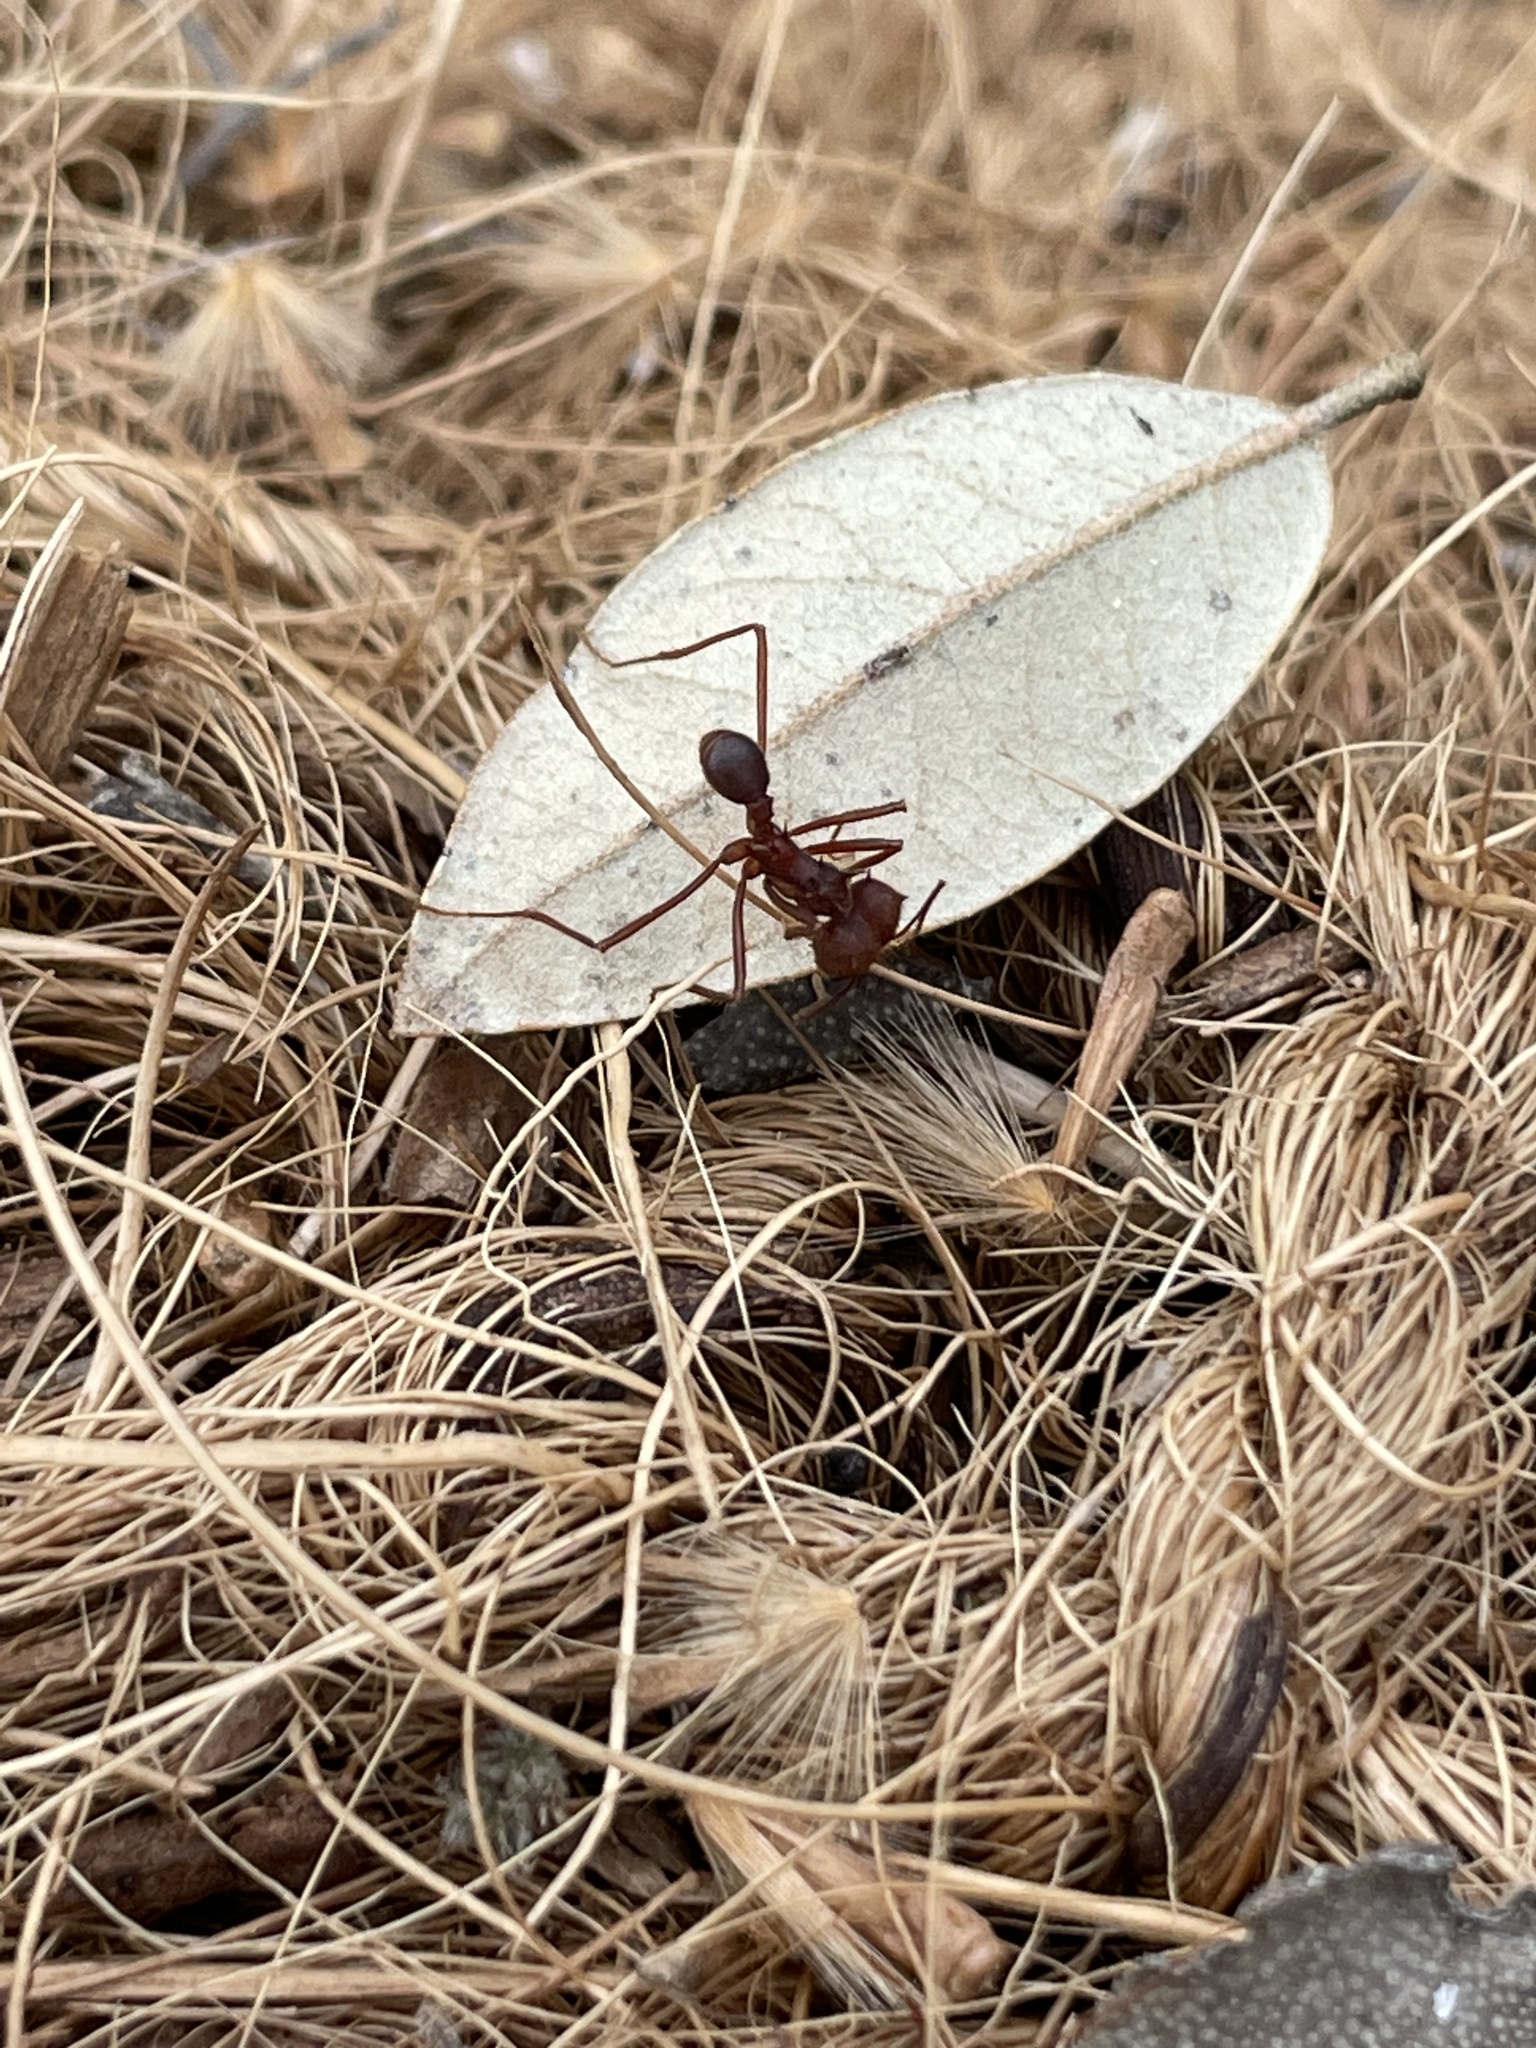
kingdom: Animalia
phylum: Arthropoda
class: Insecta
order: Hymenoptera
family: Formicidae
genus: Atta
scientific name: Atta texana
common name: Texas leafcutting ant
